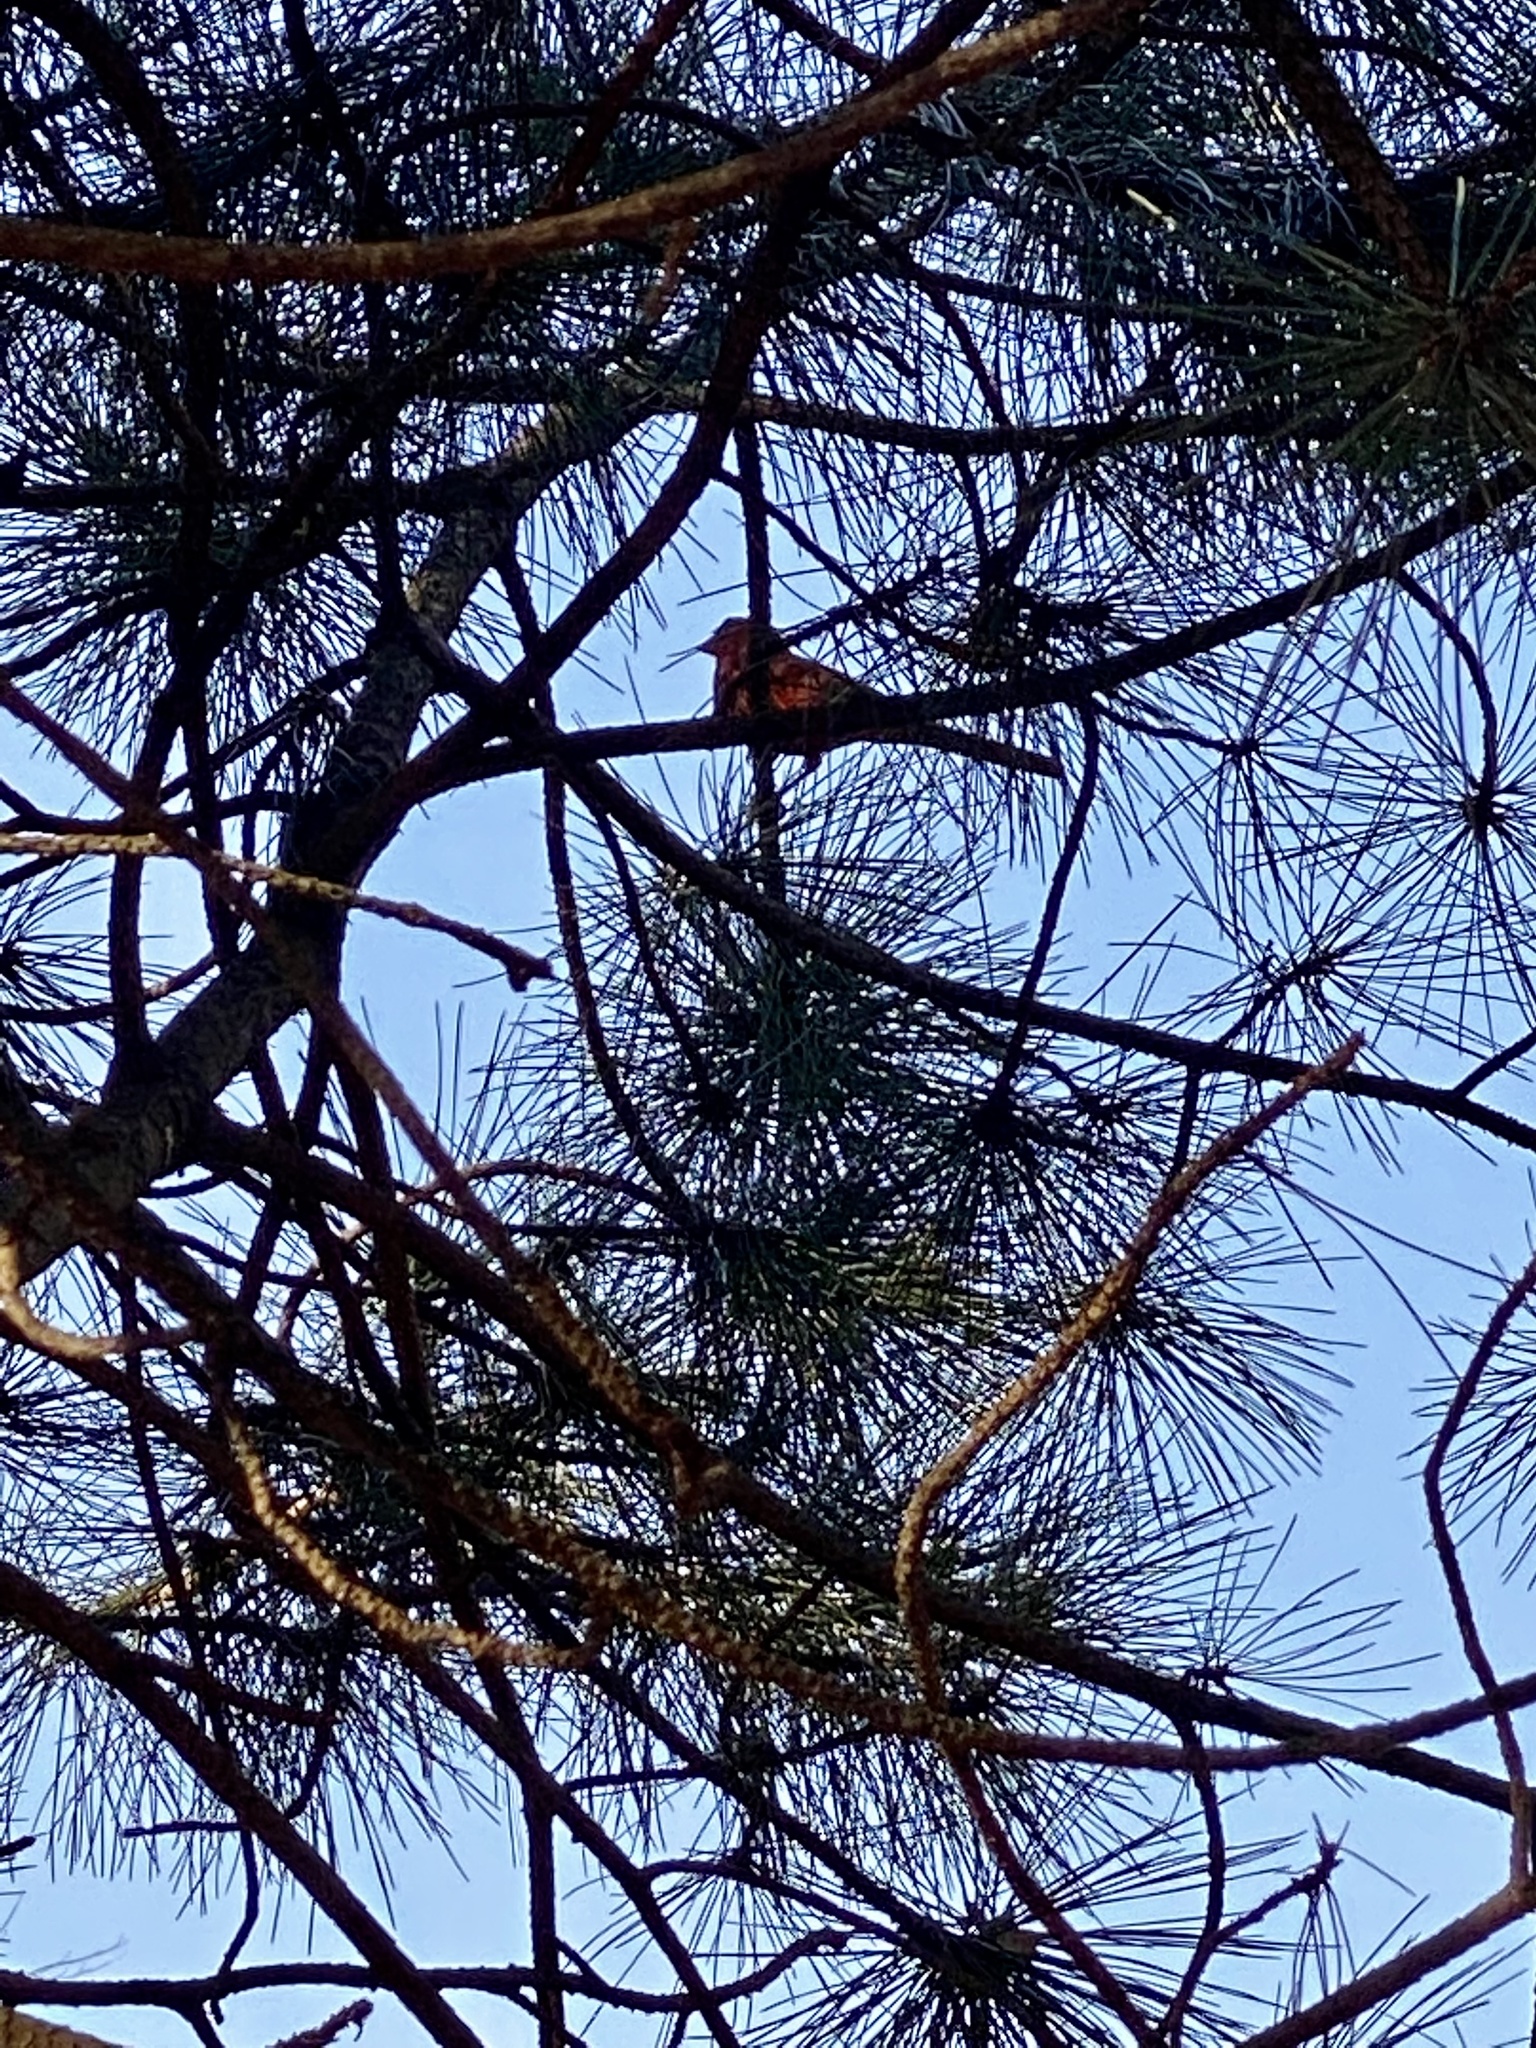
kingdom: Animalia
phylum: Chordata
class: Aves
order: Passeriformes
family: Cardinalidae
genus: Cardinalis
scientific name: Cardinalis cardinalis
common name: Northern cardinal
